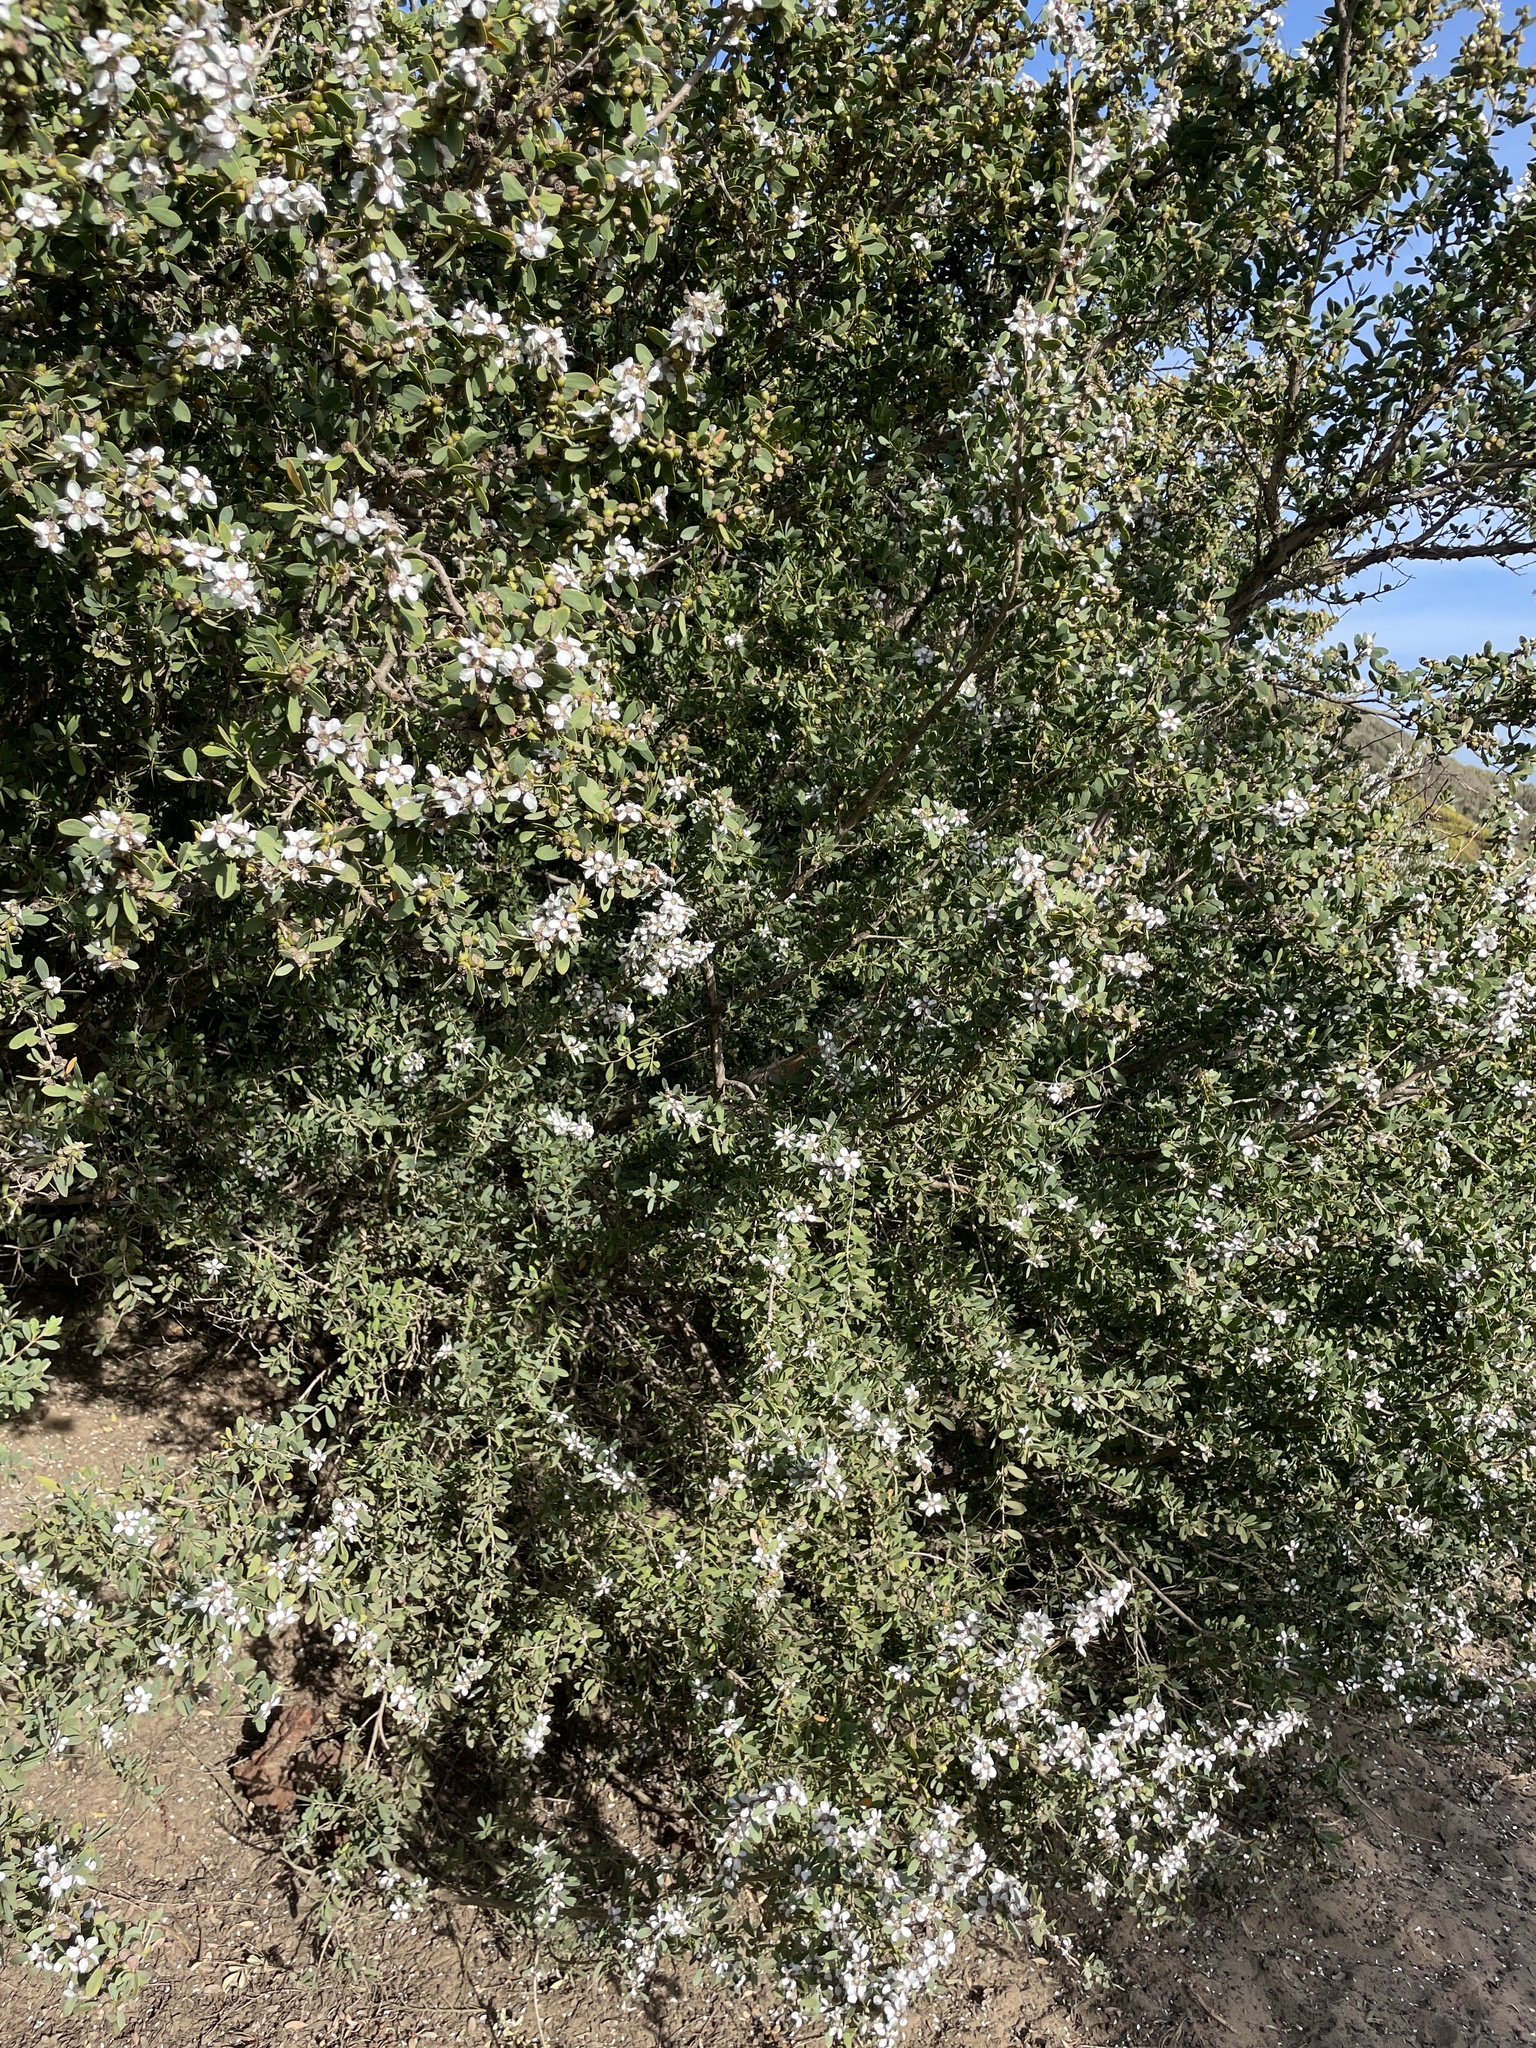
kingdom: Plantae
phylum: Tracheophyta
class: Magnoliopsida
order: Myrtales
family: Myrtaceae
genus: Leptospermum
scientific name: Leptospermum laevigatum
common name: Australian teatree
